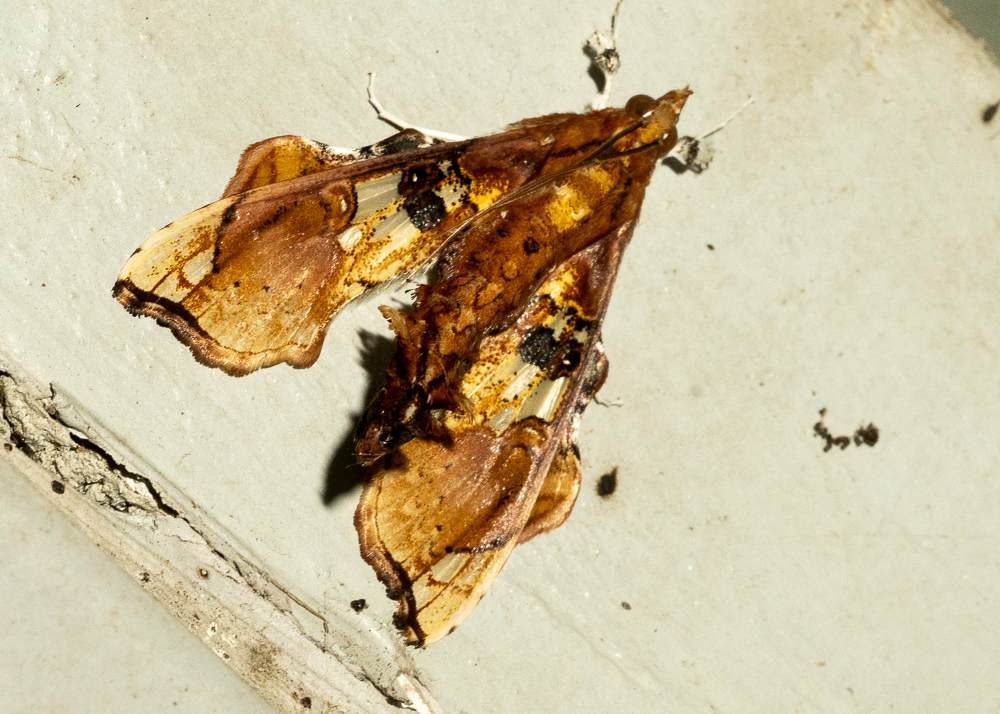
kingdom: Animalia
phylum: Arthropoda
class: Insecta
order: Lepidoptera
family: Crambidae
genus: Terastia
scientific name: Terastia egialealis
